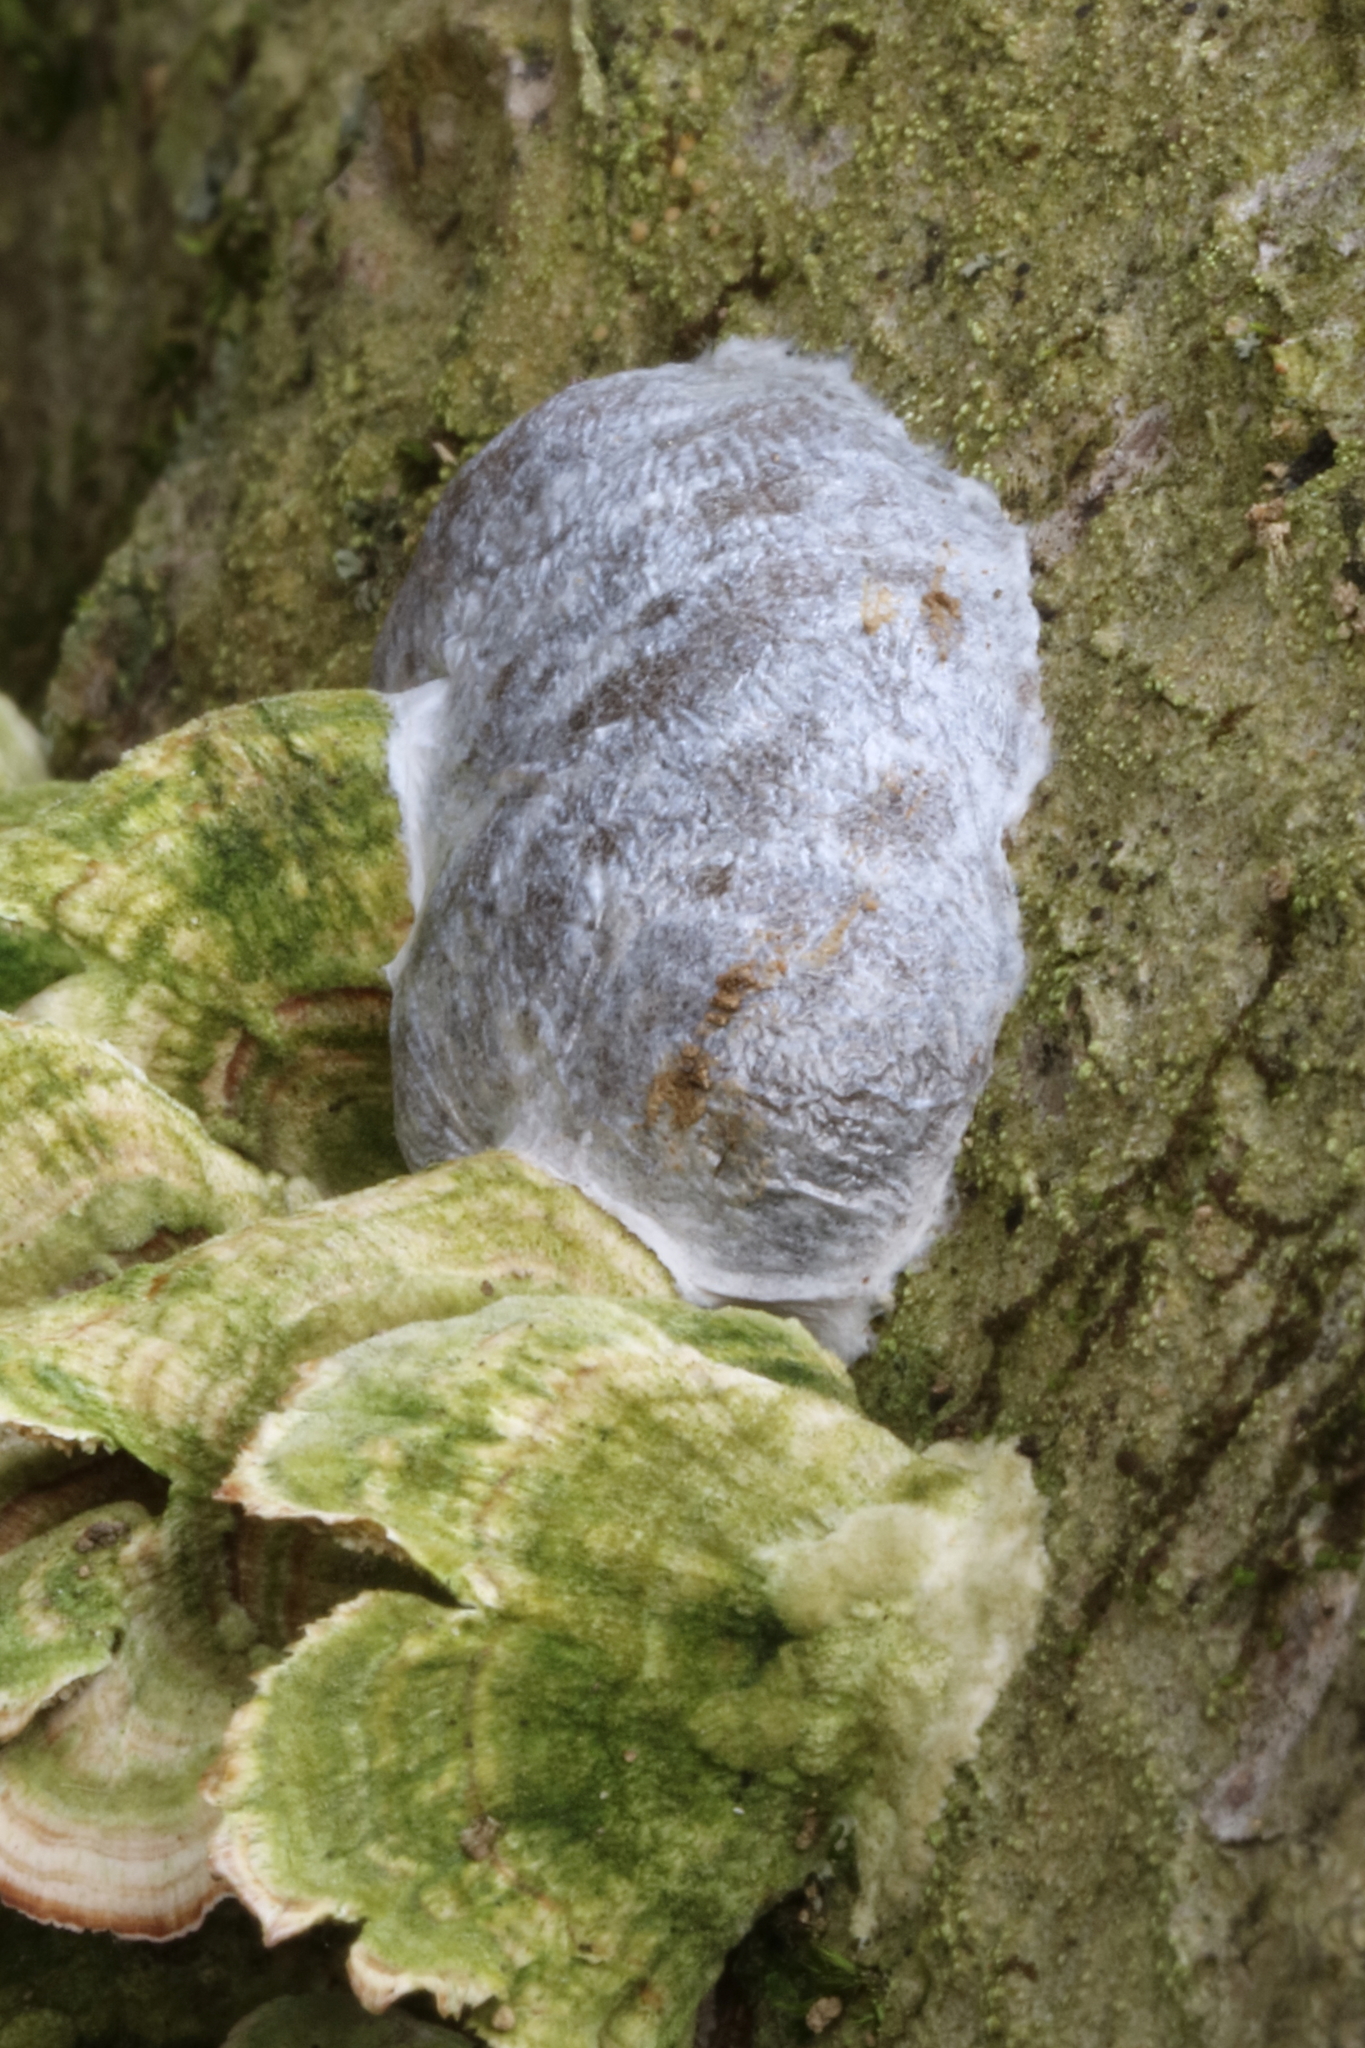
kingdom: Protozoa
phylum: Mycetozoa
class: Myxomycetes
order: Cribrariales
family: Tubiferaceae
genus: Reticularia
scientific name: Reticularia lycoperdon
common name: False puffball
